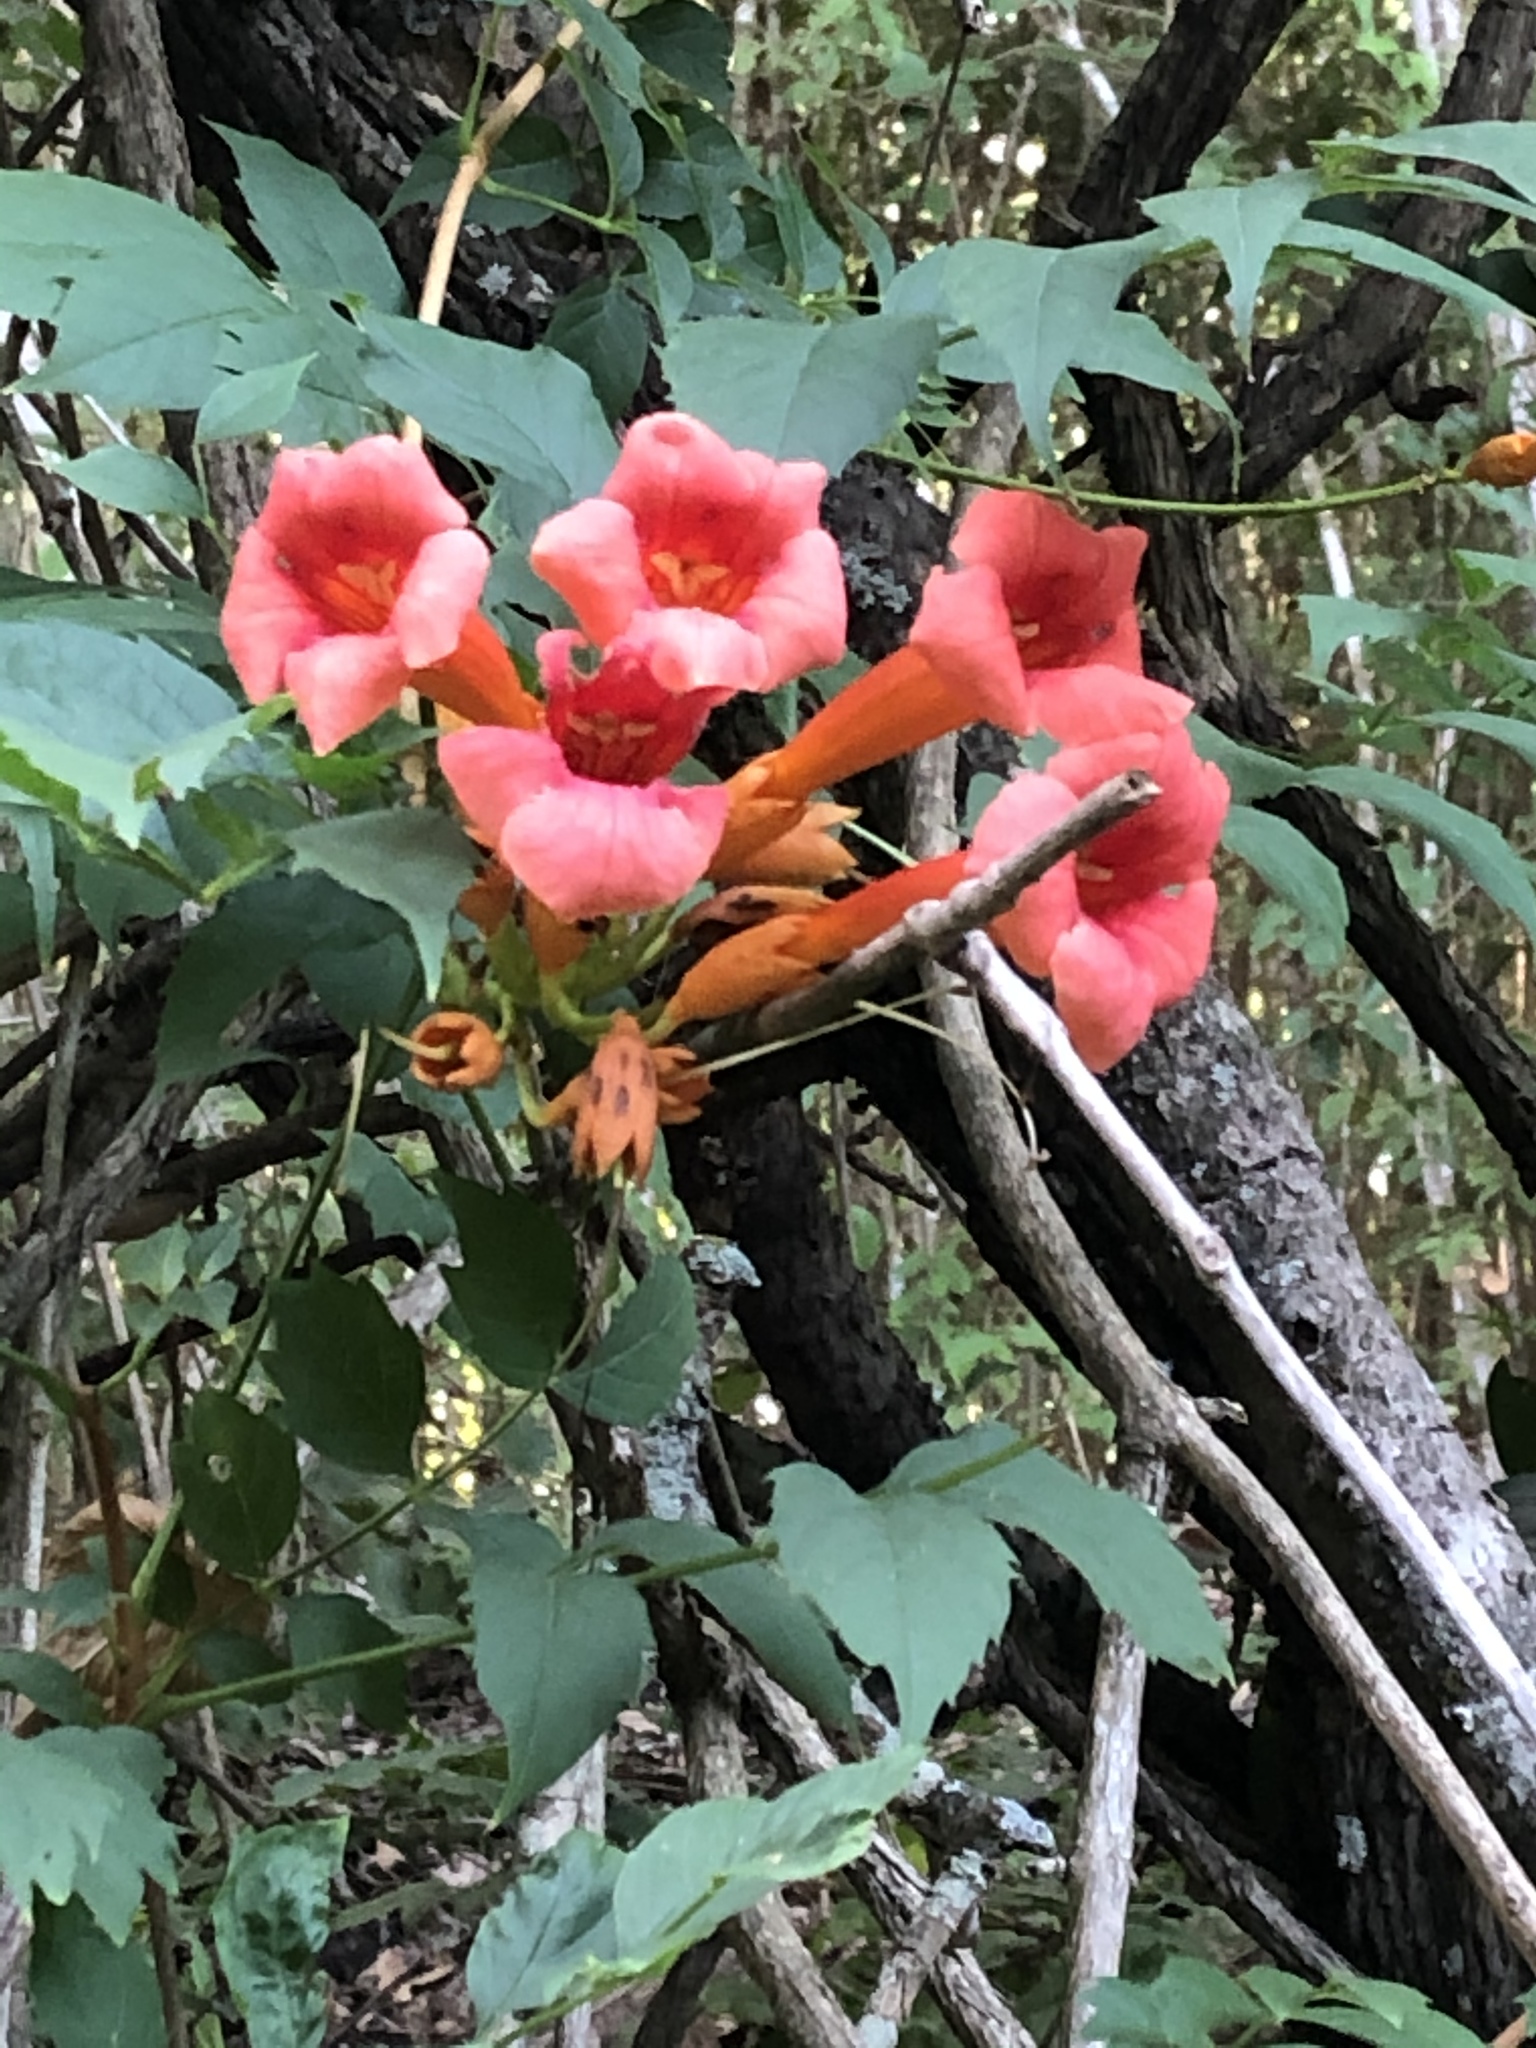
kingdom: Plantae
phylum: Tracheophyta
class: Magnoliopsida
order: Lamiales
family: Bignoniaceae
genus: Campsis
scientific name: Campsis radicans
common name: Trumpet-creeper
